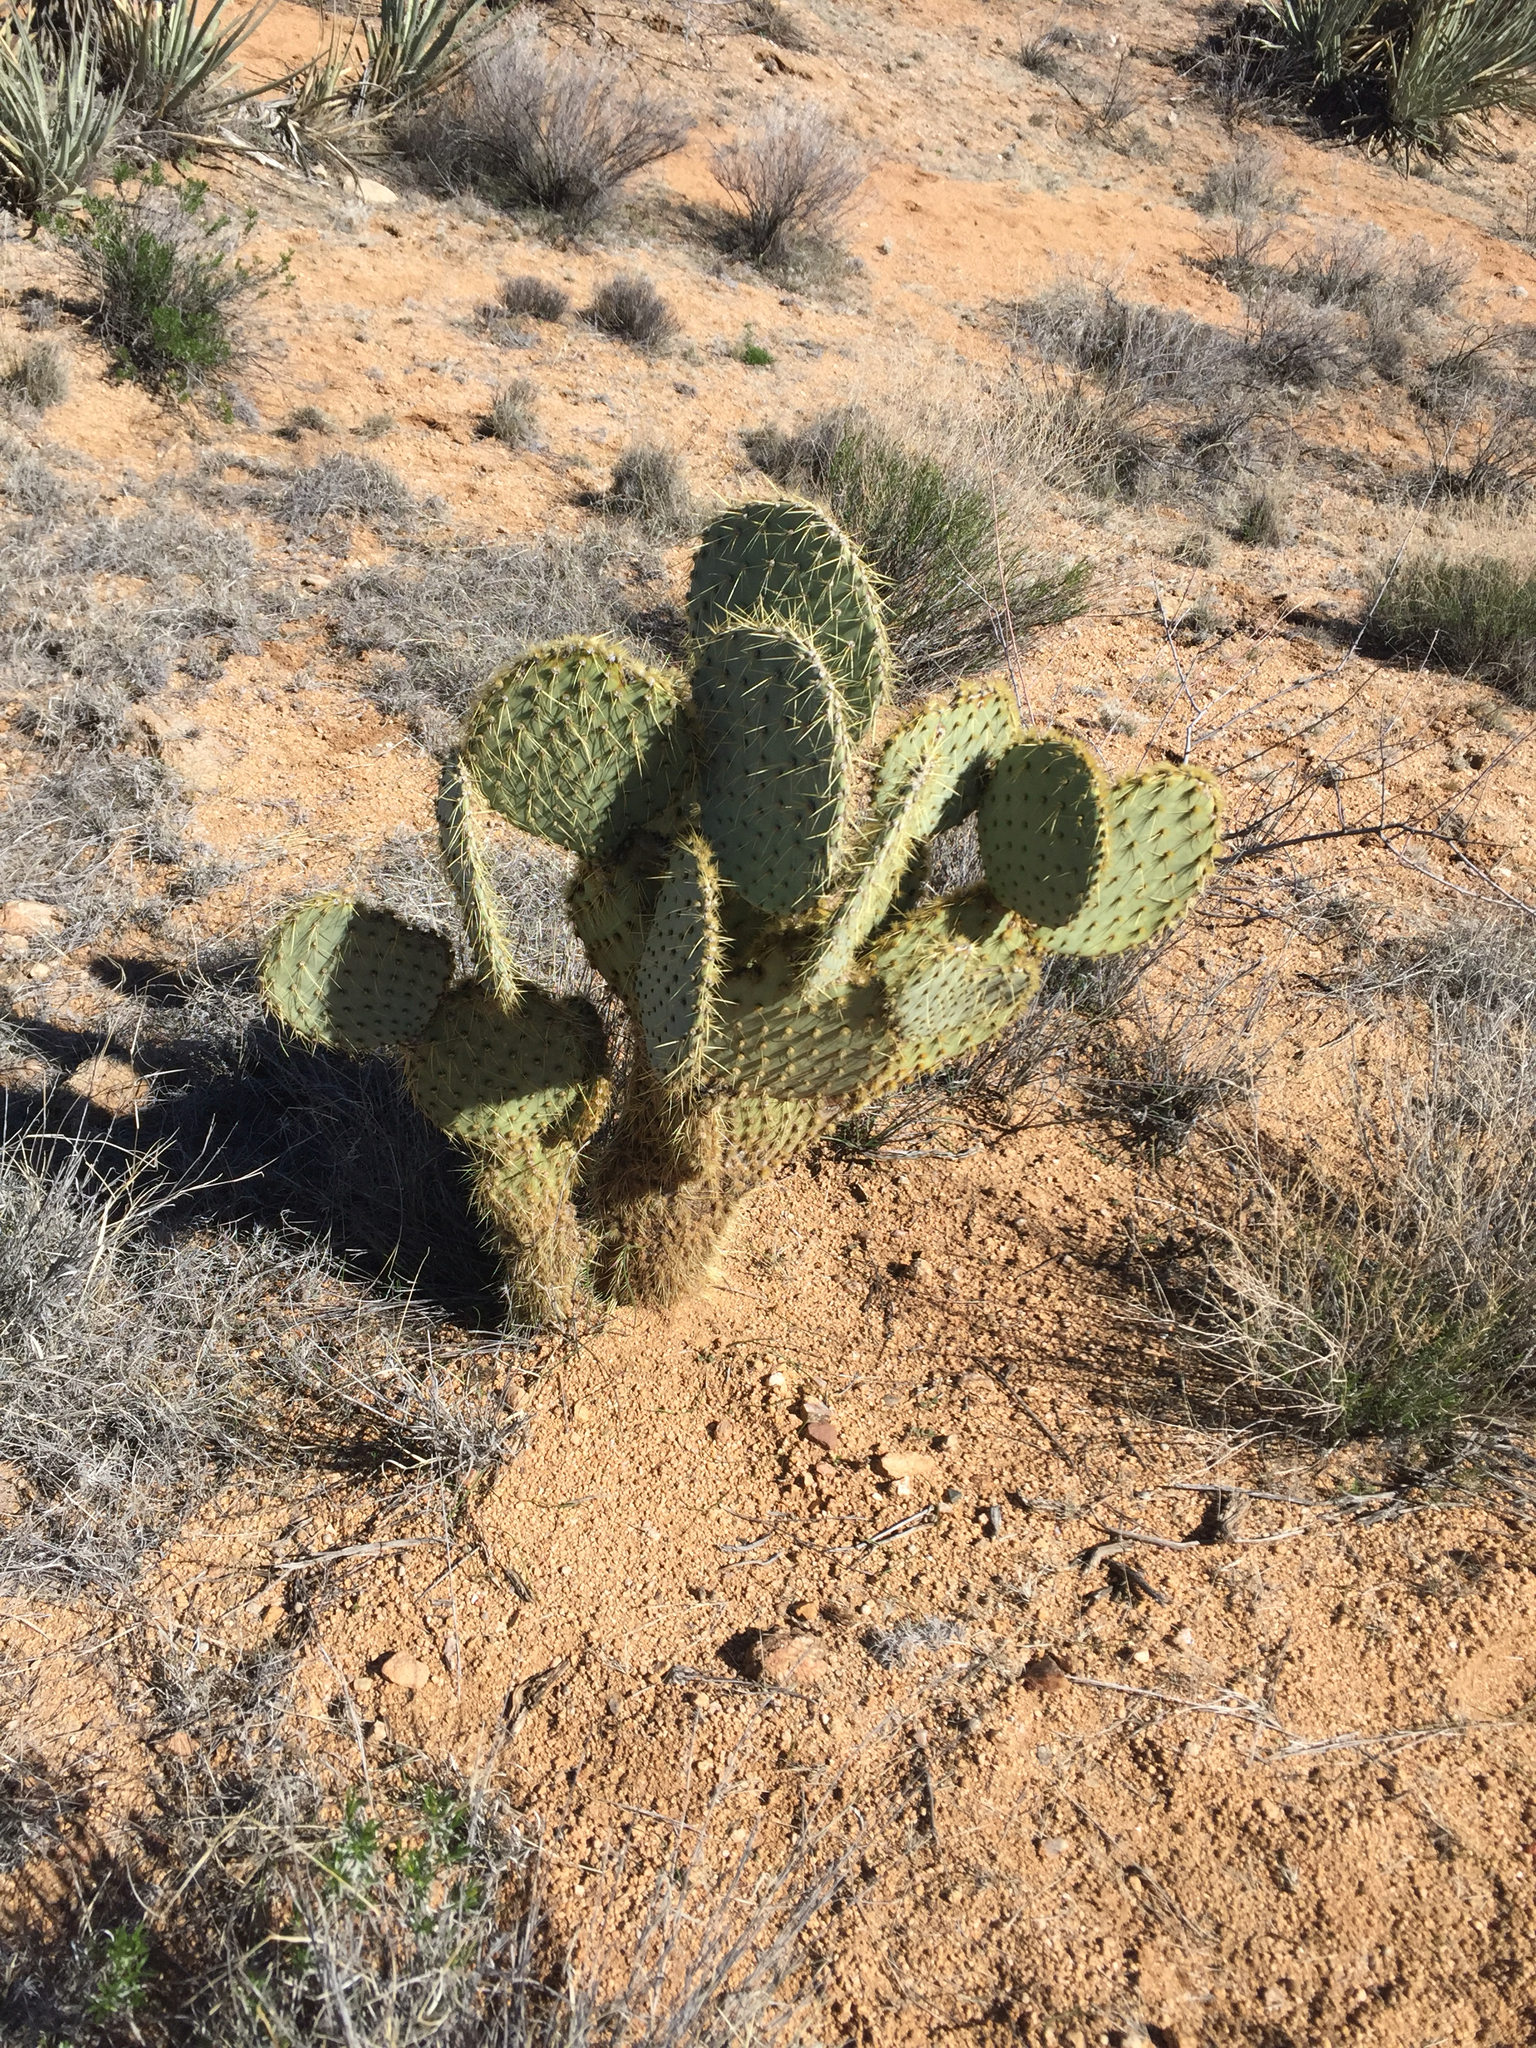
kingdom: Plantae
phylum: Tracheophyta
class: Magnoliopsida
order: Caryophyllales
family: Cactaceae
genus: Opuntia
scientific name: Opuntia chlorotica
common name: Dollar-joint prickly-pear
